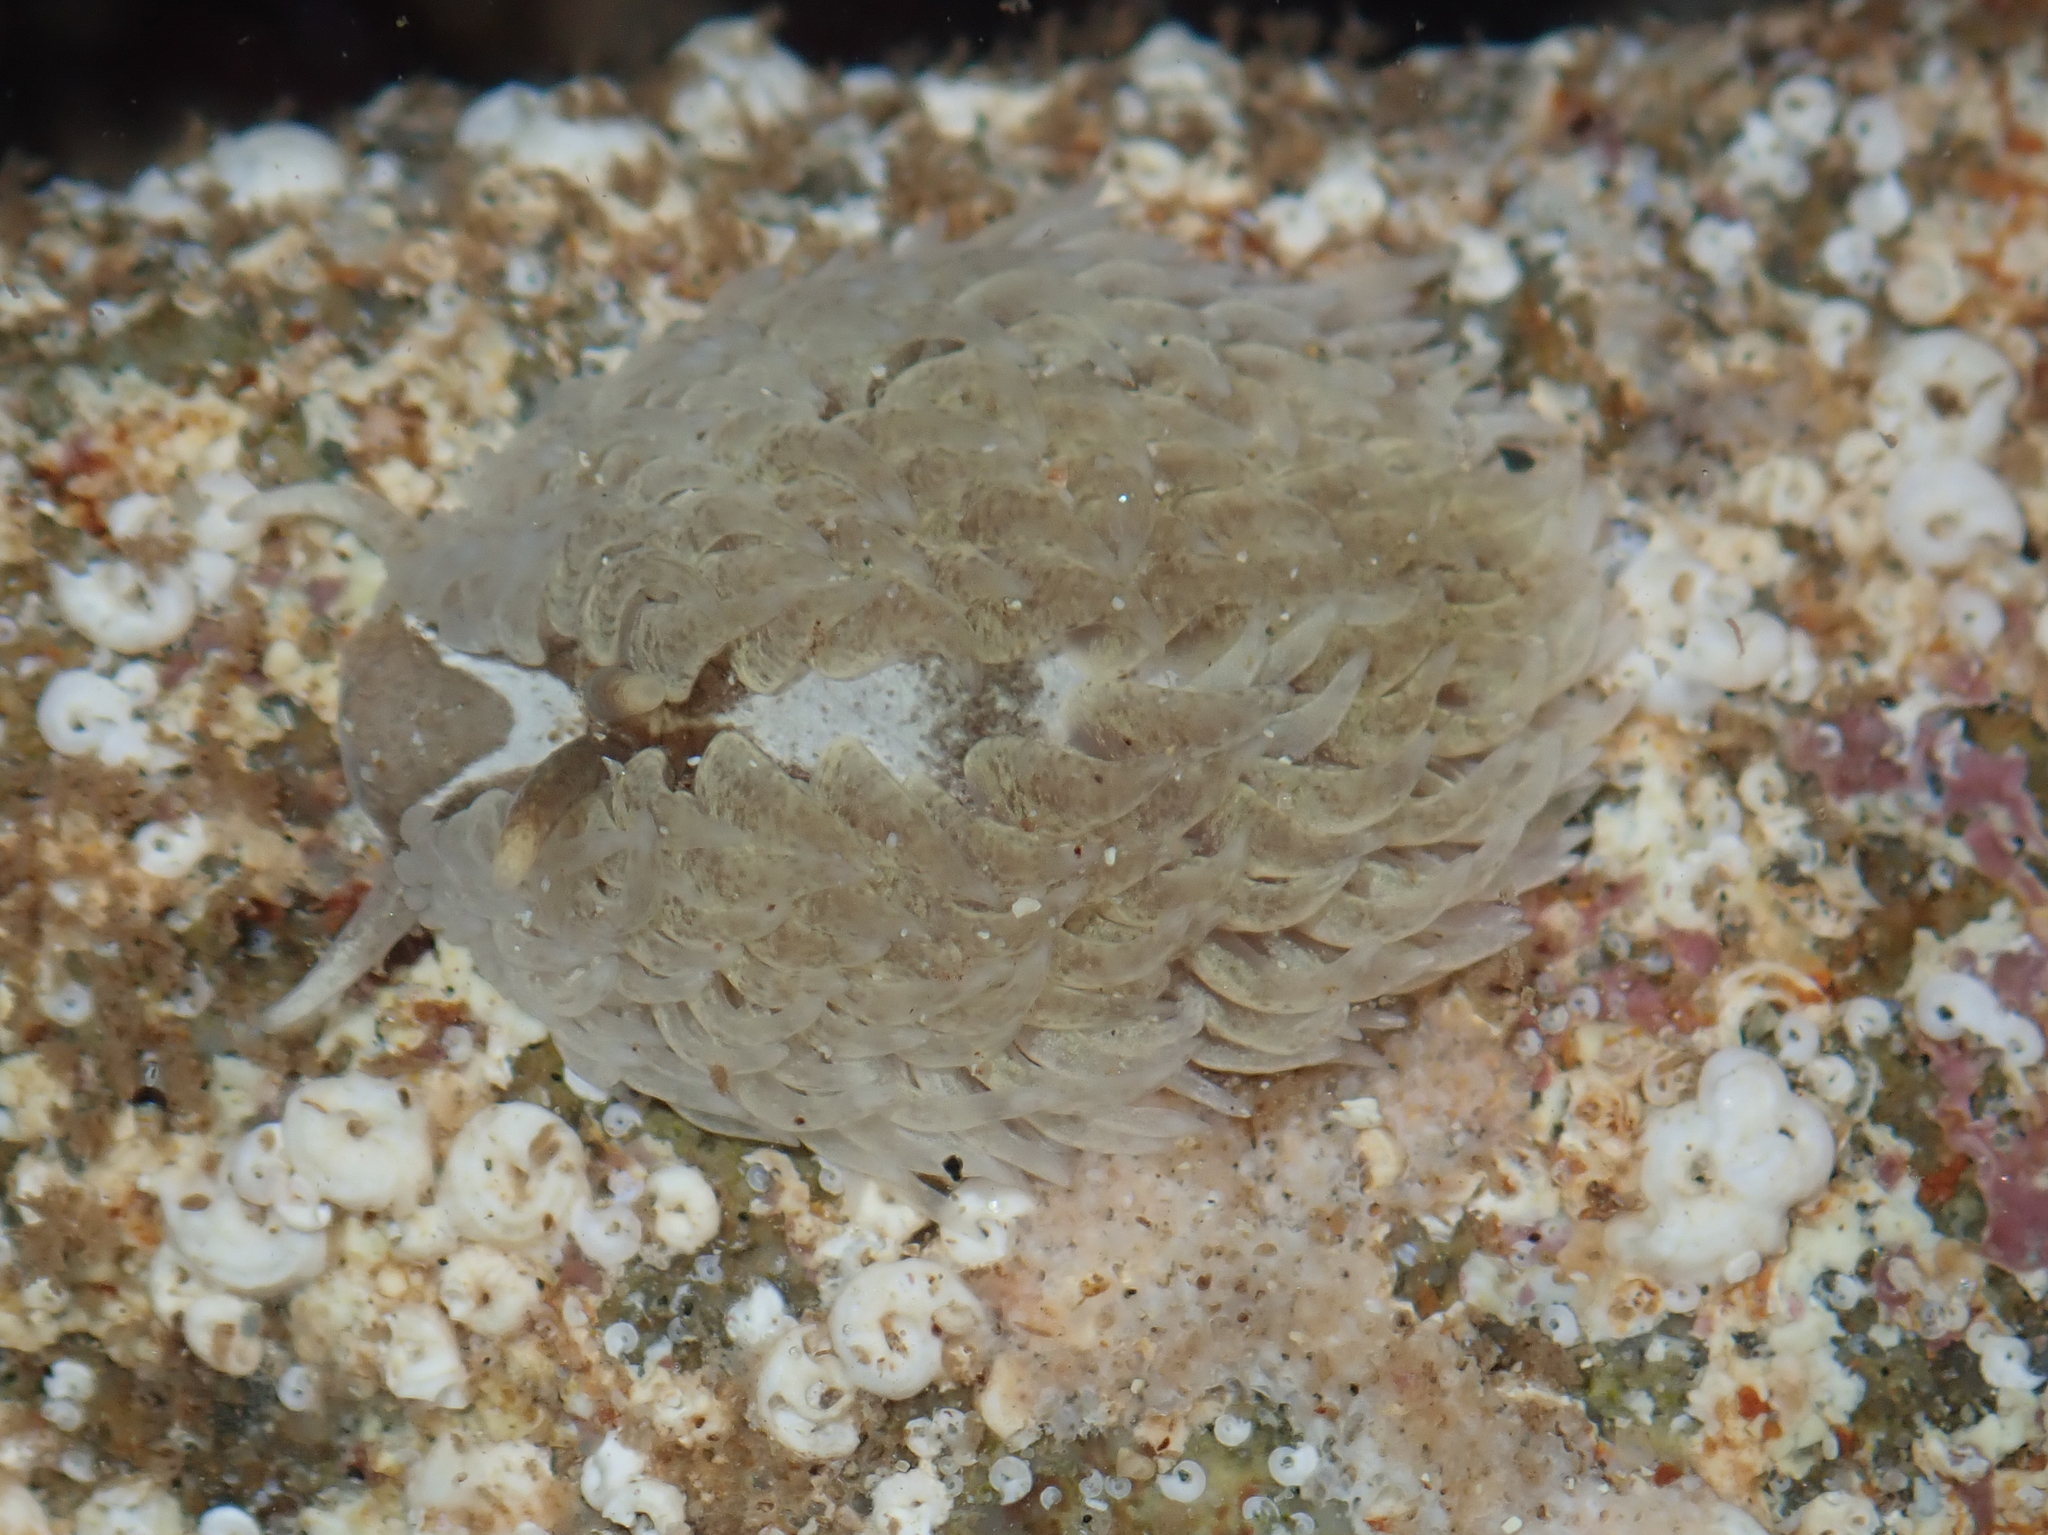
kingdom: Animalia
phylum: Mollusca
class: Gastropoda
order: Nudibranchia
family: Aeolidiidae
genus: Aeolidia
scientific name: Aeolidia filomenae
